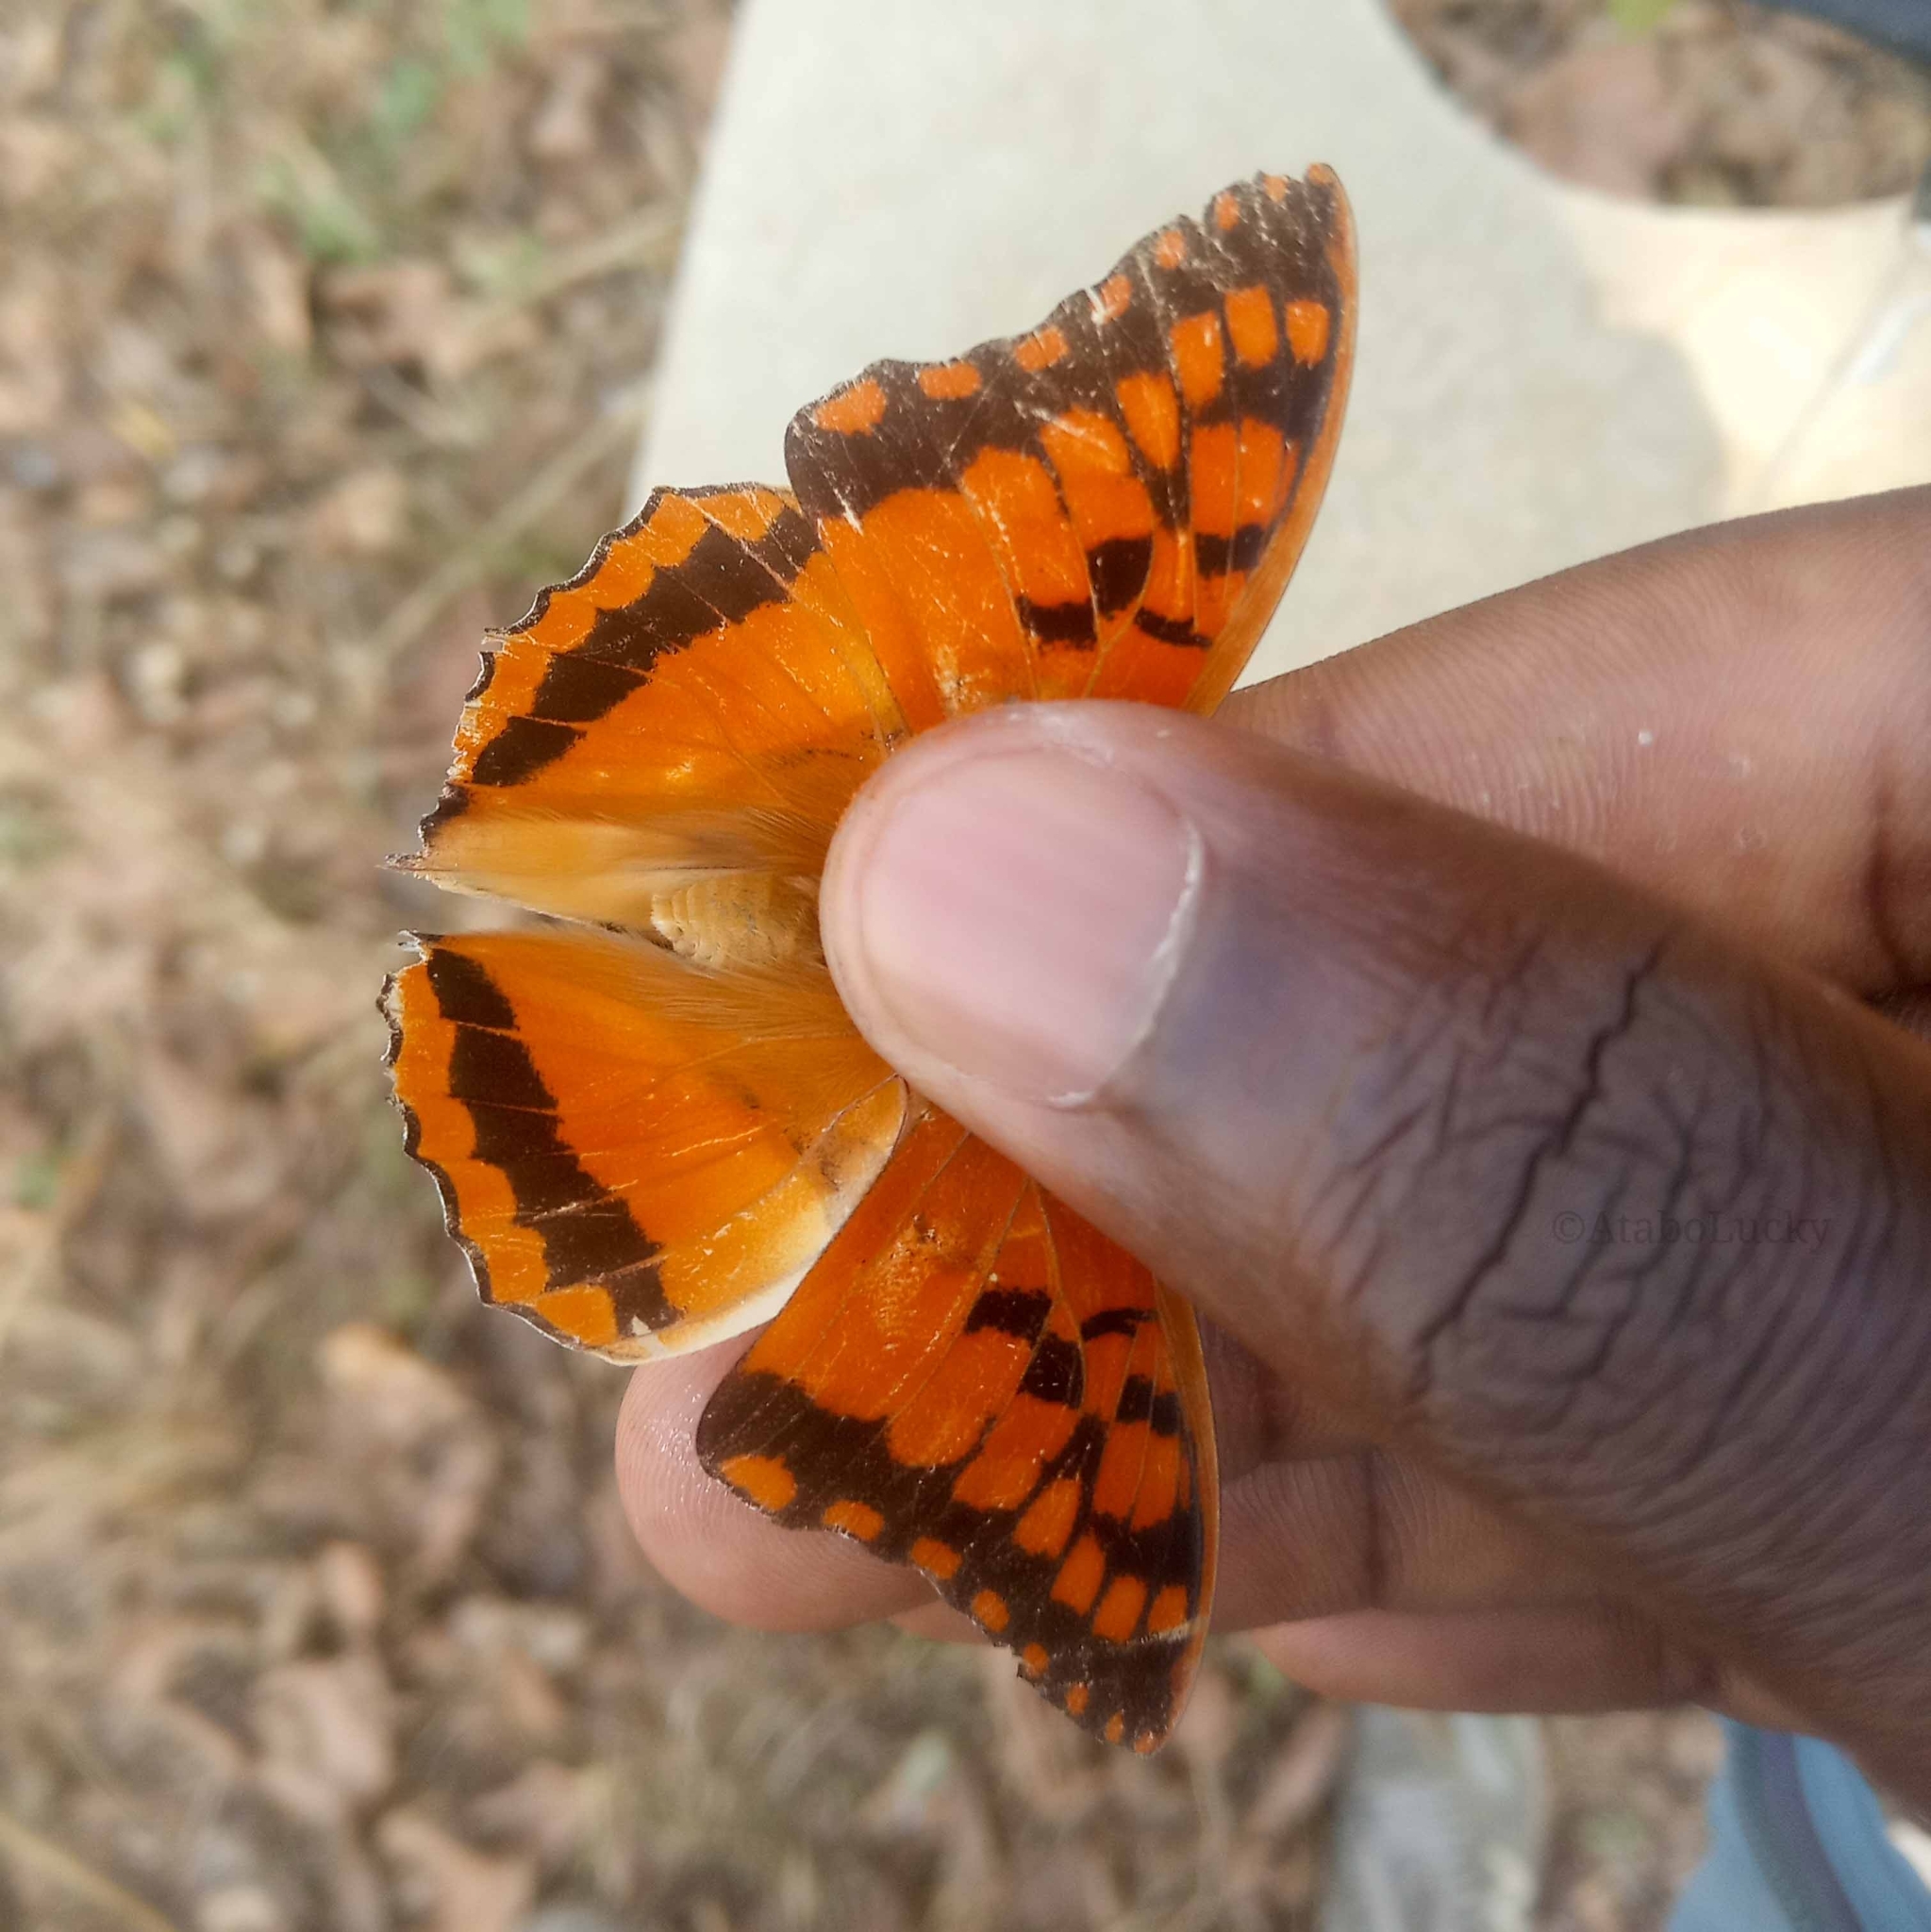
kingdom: Animalia
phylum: Arthropoda
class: Insecta
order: Lepidoptera
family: Nymphalidae
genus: Charaxes
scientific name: Charaxes boueti
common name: Bamboo charaxes
